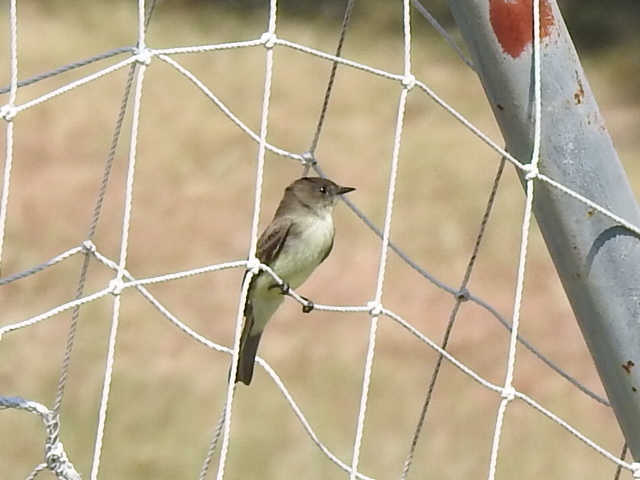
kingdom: Animalia
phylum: Chordata
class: Aves
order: Passeriformes
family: Tyrannidae
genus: Sayornis
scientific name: Sayornis phoebe
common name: Eastern phoebe
